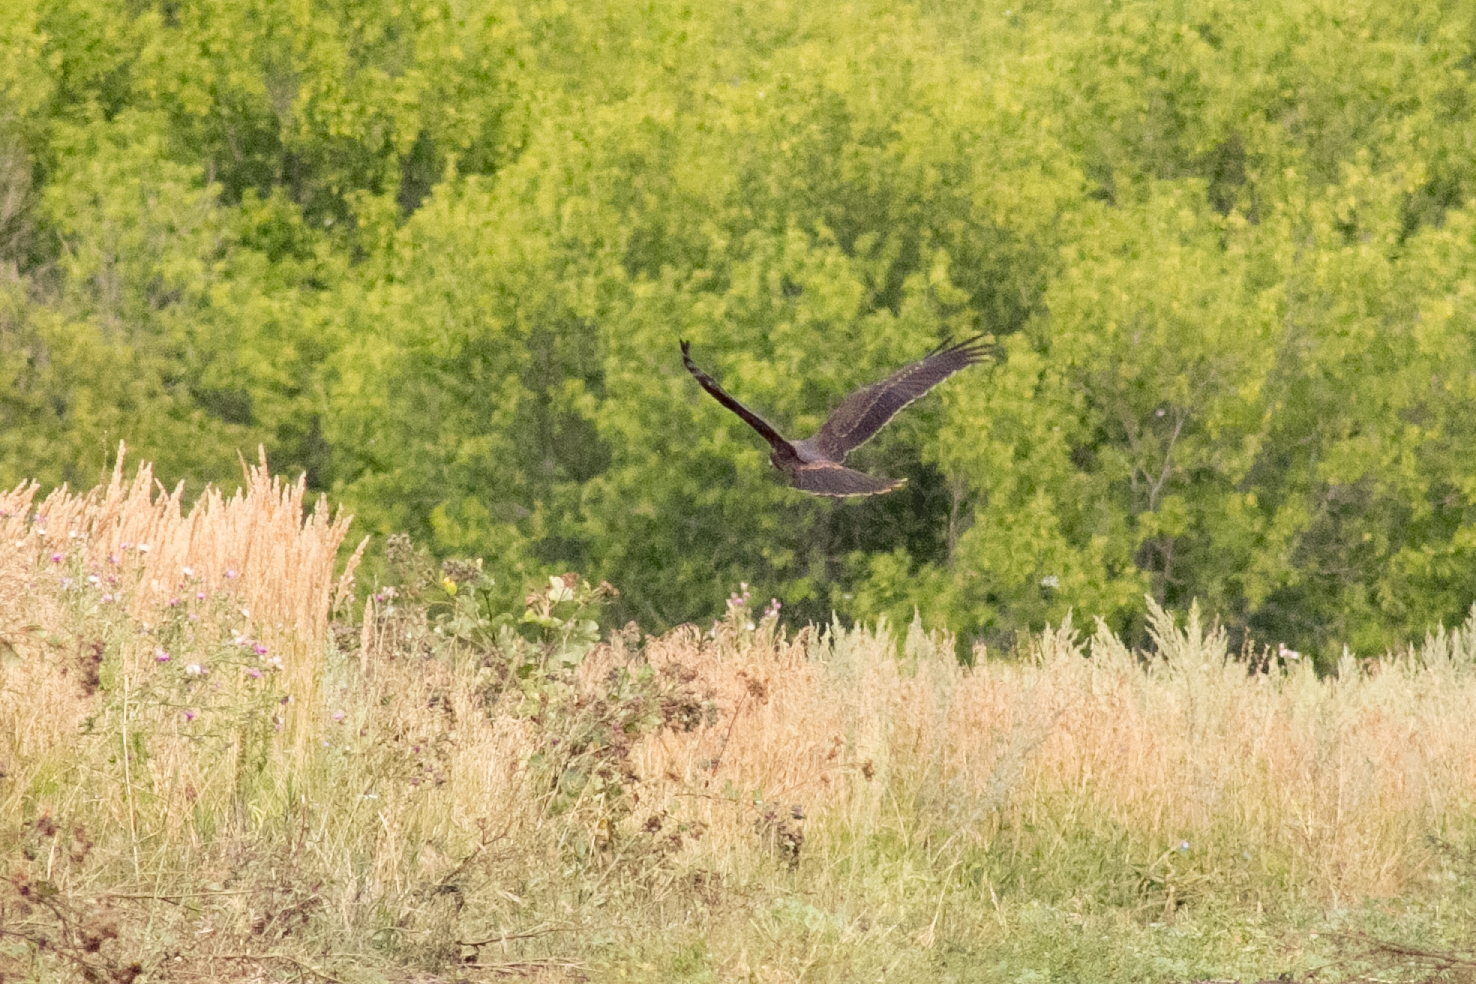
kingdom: Animalia
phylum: Chordata
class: Aves
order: Accipitriformes
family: Accipitridae
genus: Circus
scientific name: Circus aeruginosus
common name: Western marsh harrier
